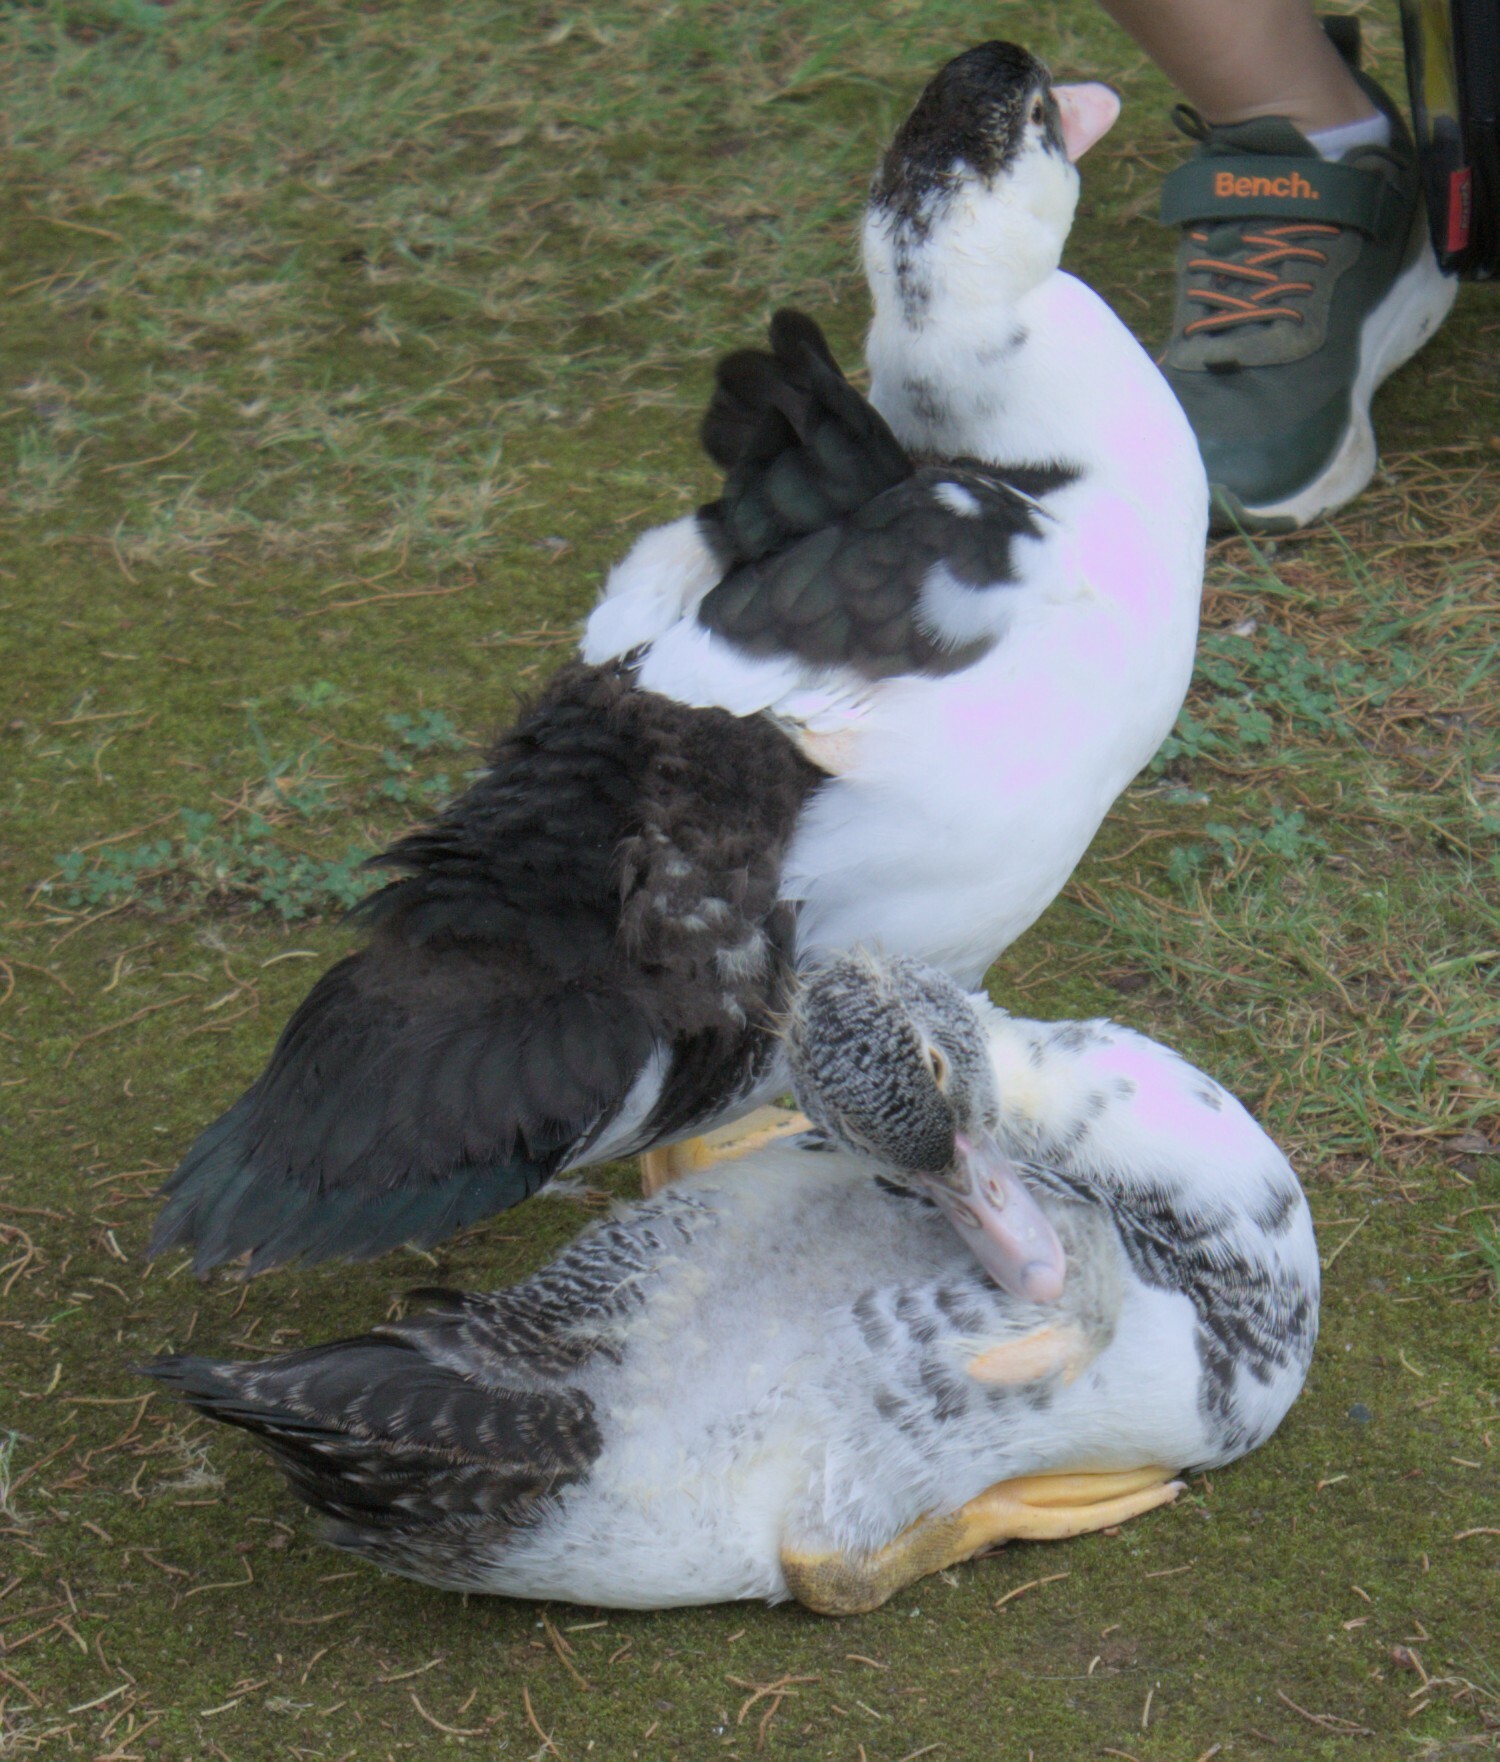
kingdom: Animalia
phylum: Chordata
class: Aves
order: Anseriformes
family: Anatidae
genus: Cairina
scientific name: Cairina moschata
